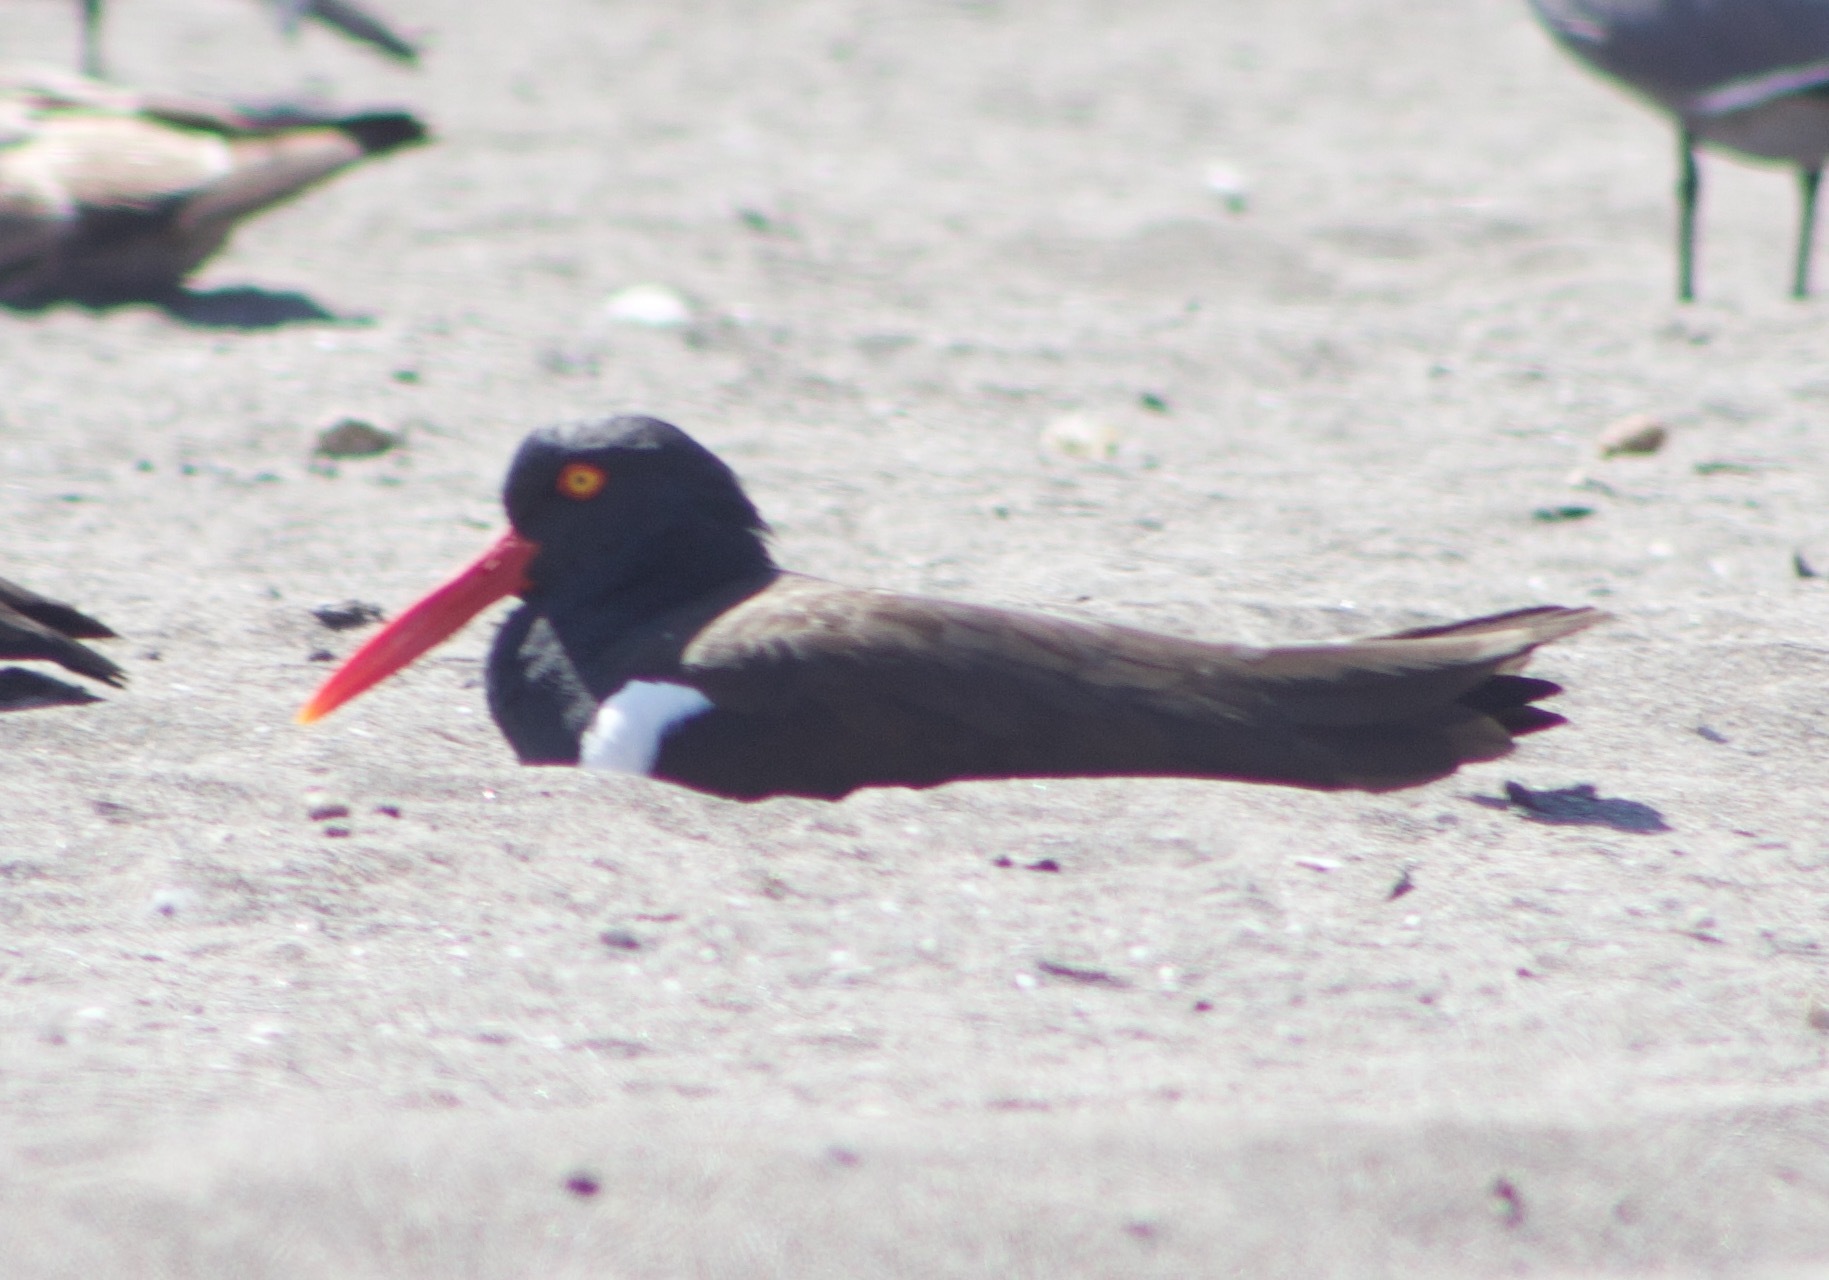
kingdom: Animalia
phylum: Chordata
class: Aves
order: Charadriiformes
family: Haematopodidae
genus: Haematopus
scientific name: Haematopus palliatus
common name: American oystercatcher
